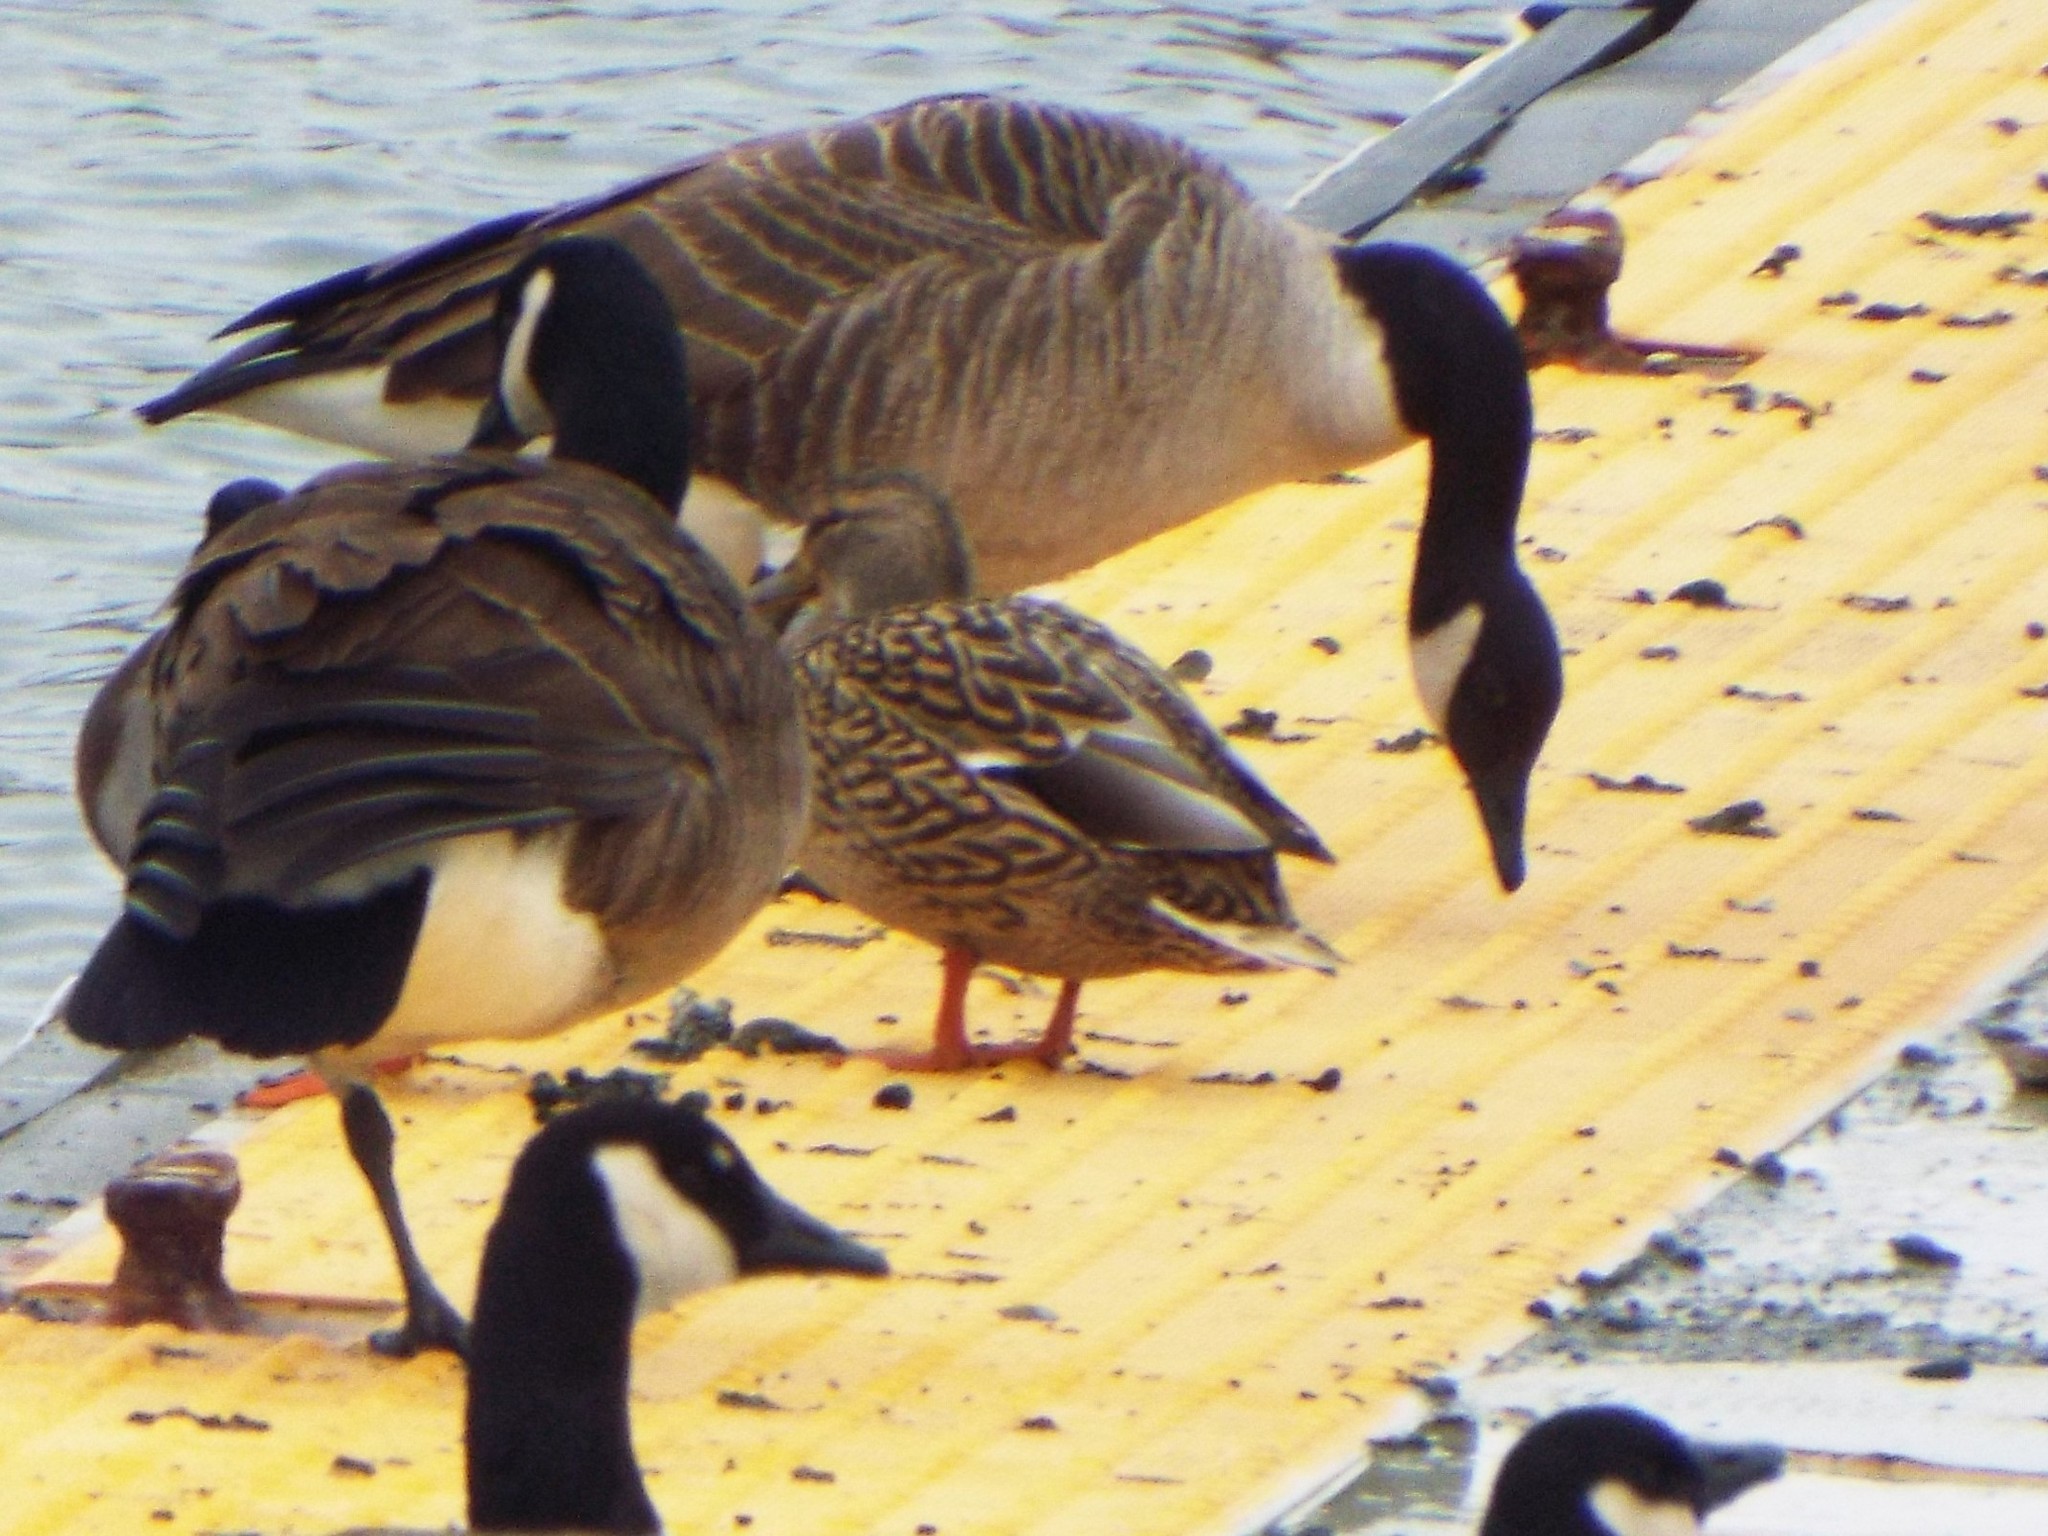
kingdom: Animalia
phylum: Chordata
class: Aves
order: Anseriformes
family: Anatidae
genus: Anas
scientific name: Anas platyrhynchos
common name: Mallard
